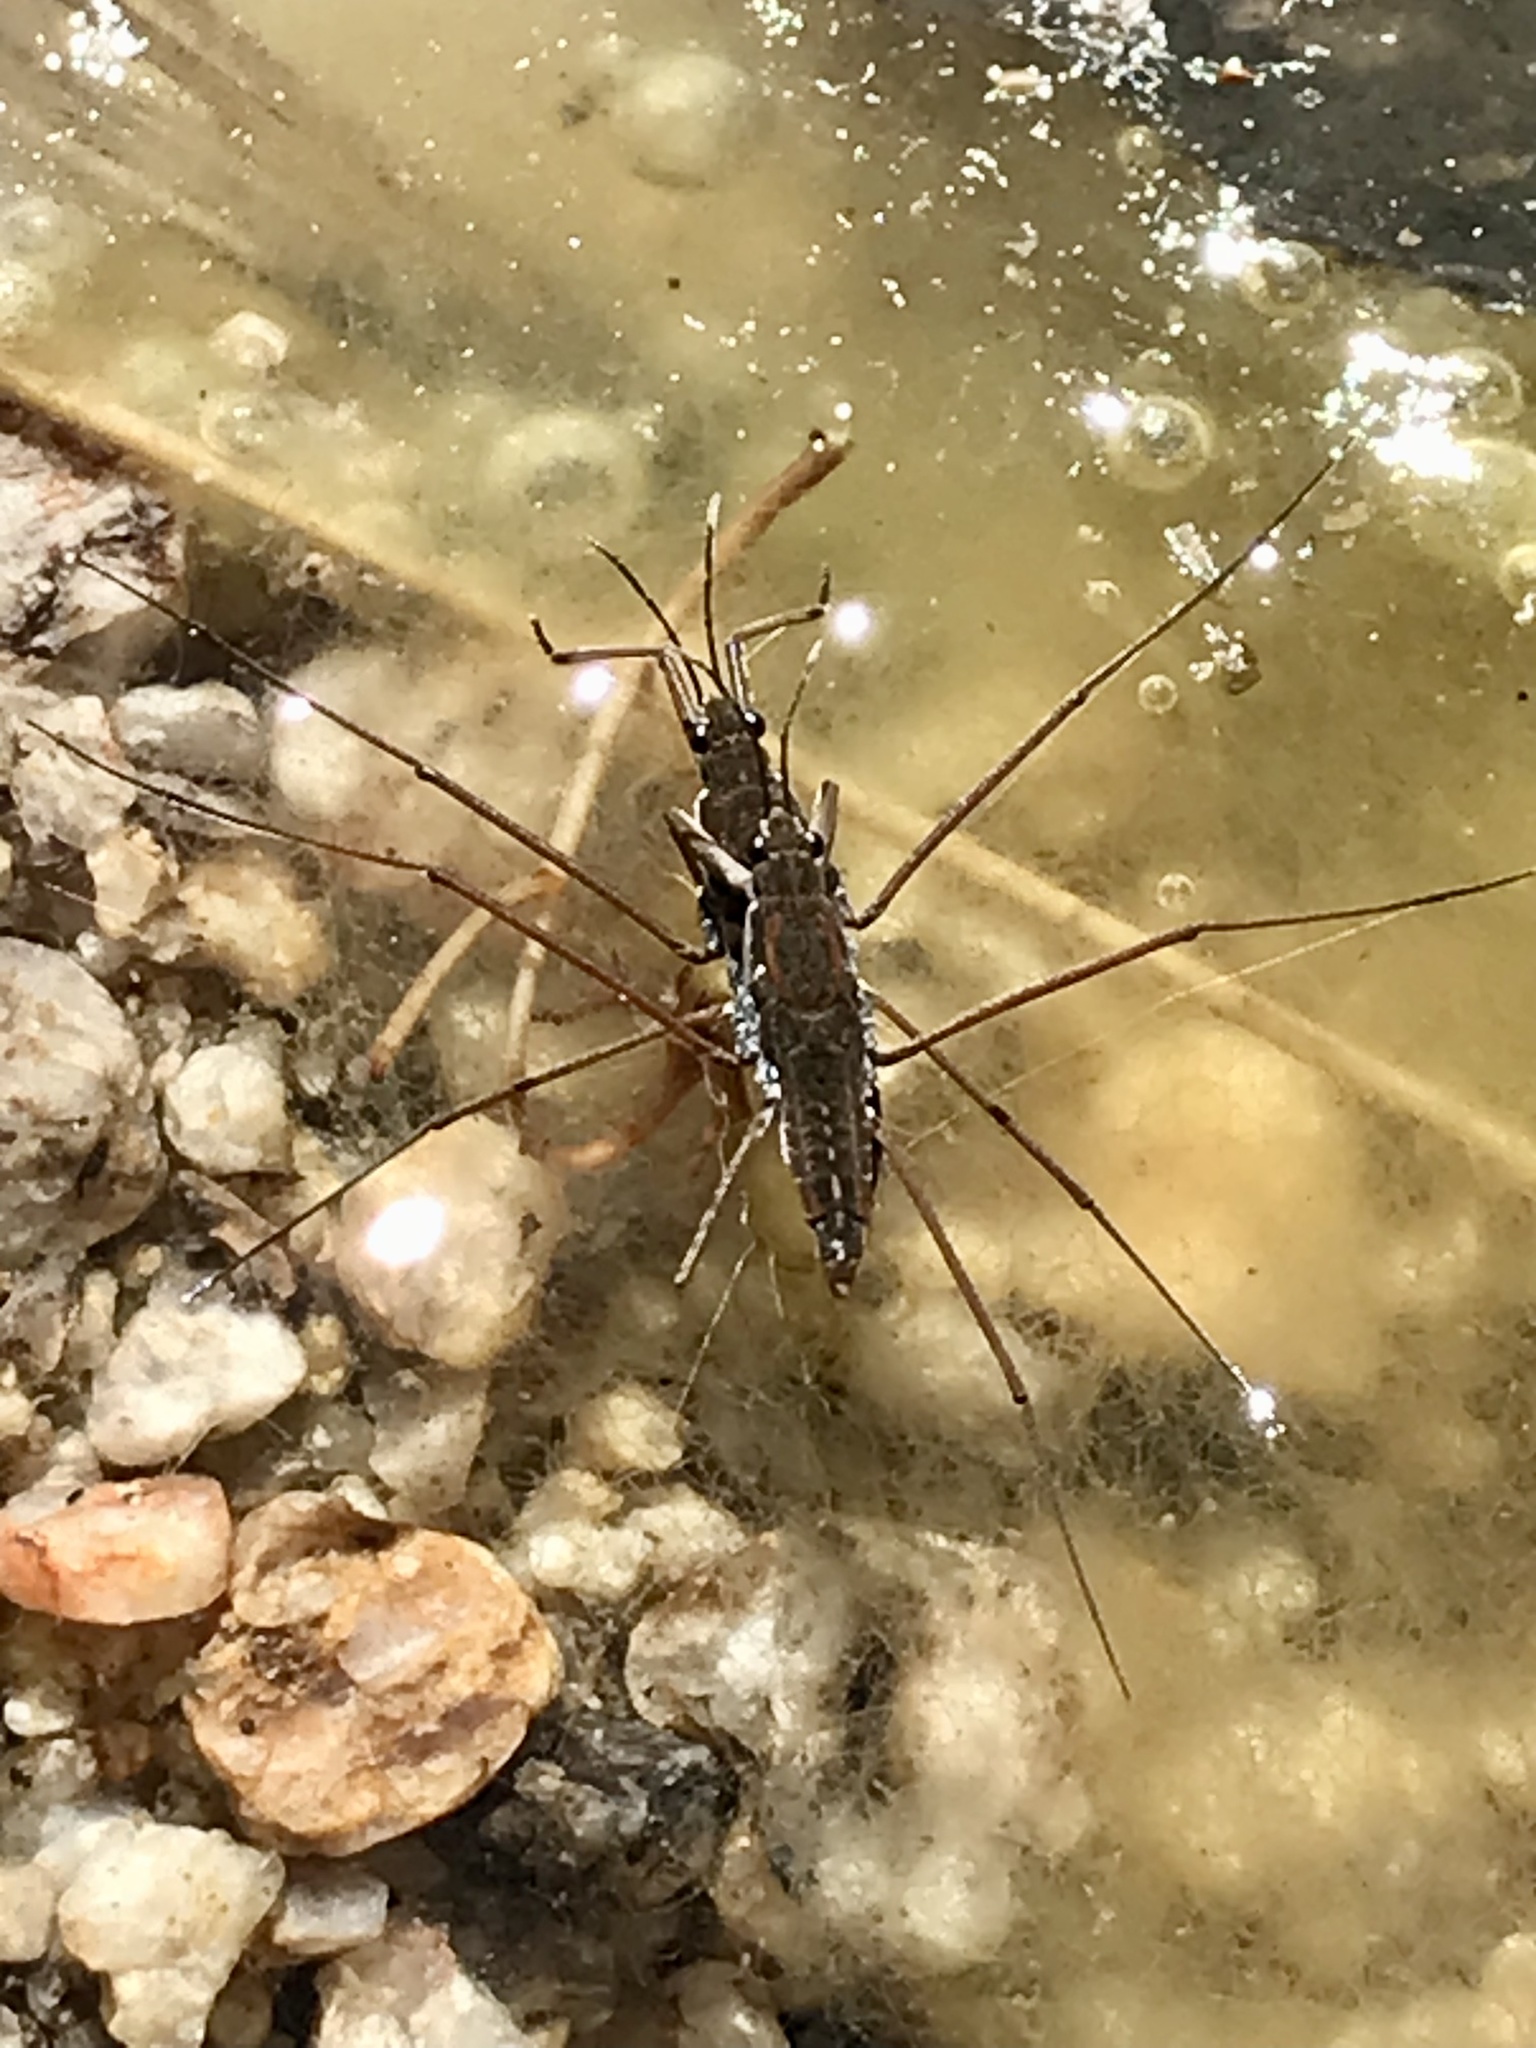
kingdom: Animalia
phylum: Arthropoda
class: Insecta
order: Hemiptera
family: Gerridae
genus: Aquarius
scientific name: Aquarius
